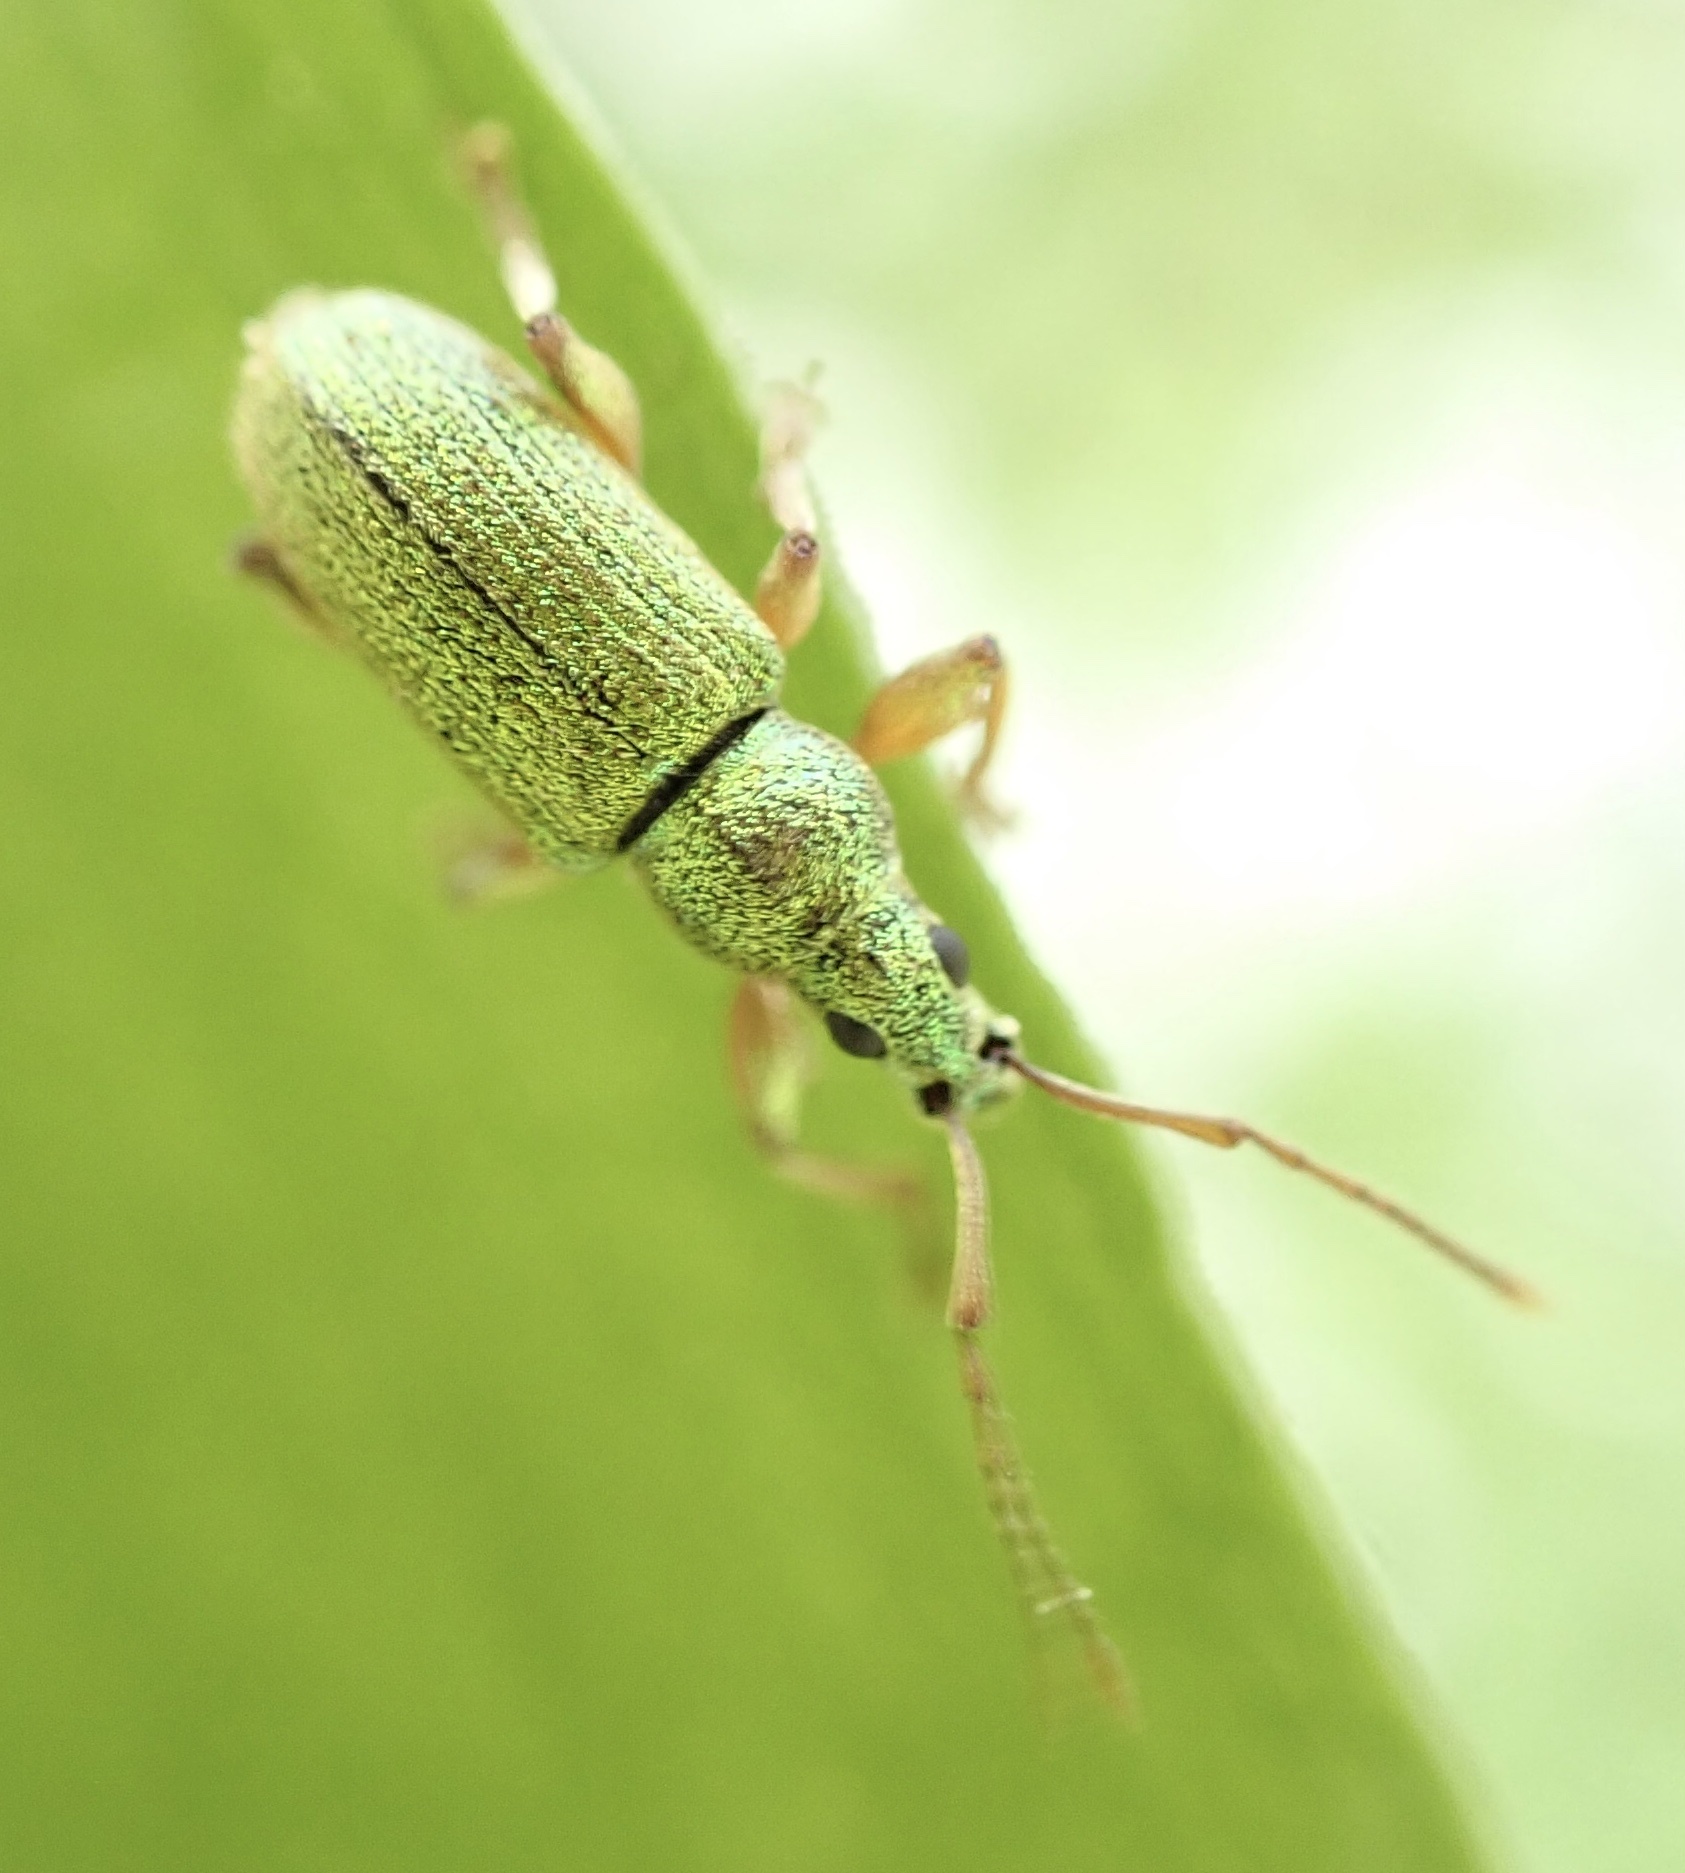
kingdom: Animalia
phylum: Arthropoda
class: Insecta
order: Coleoptera
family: Curculionidae
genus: Phyllobius
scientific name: Phyllobius argentatus
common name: Silver-green leaf weevil
